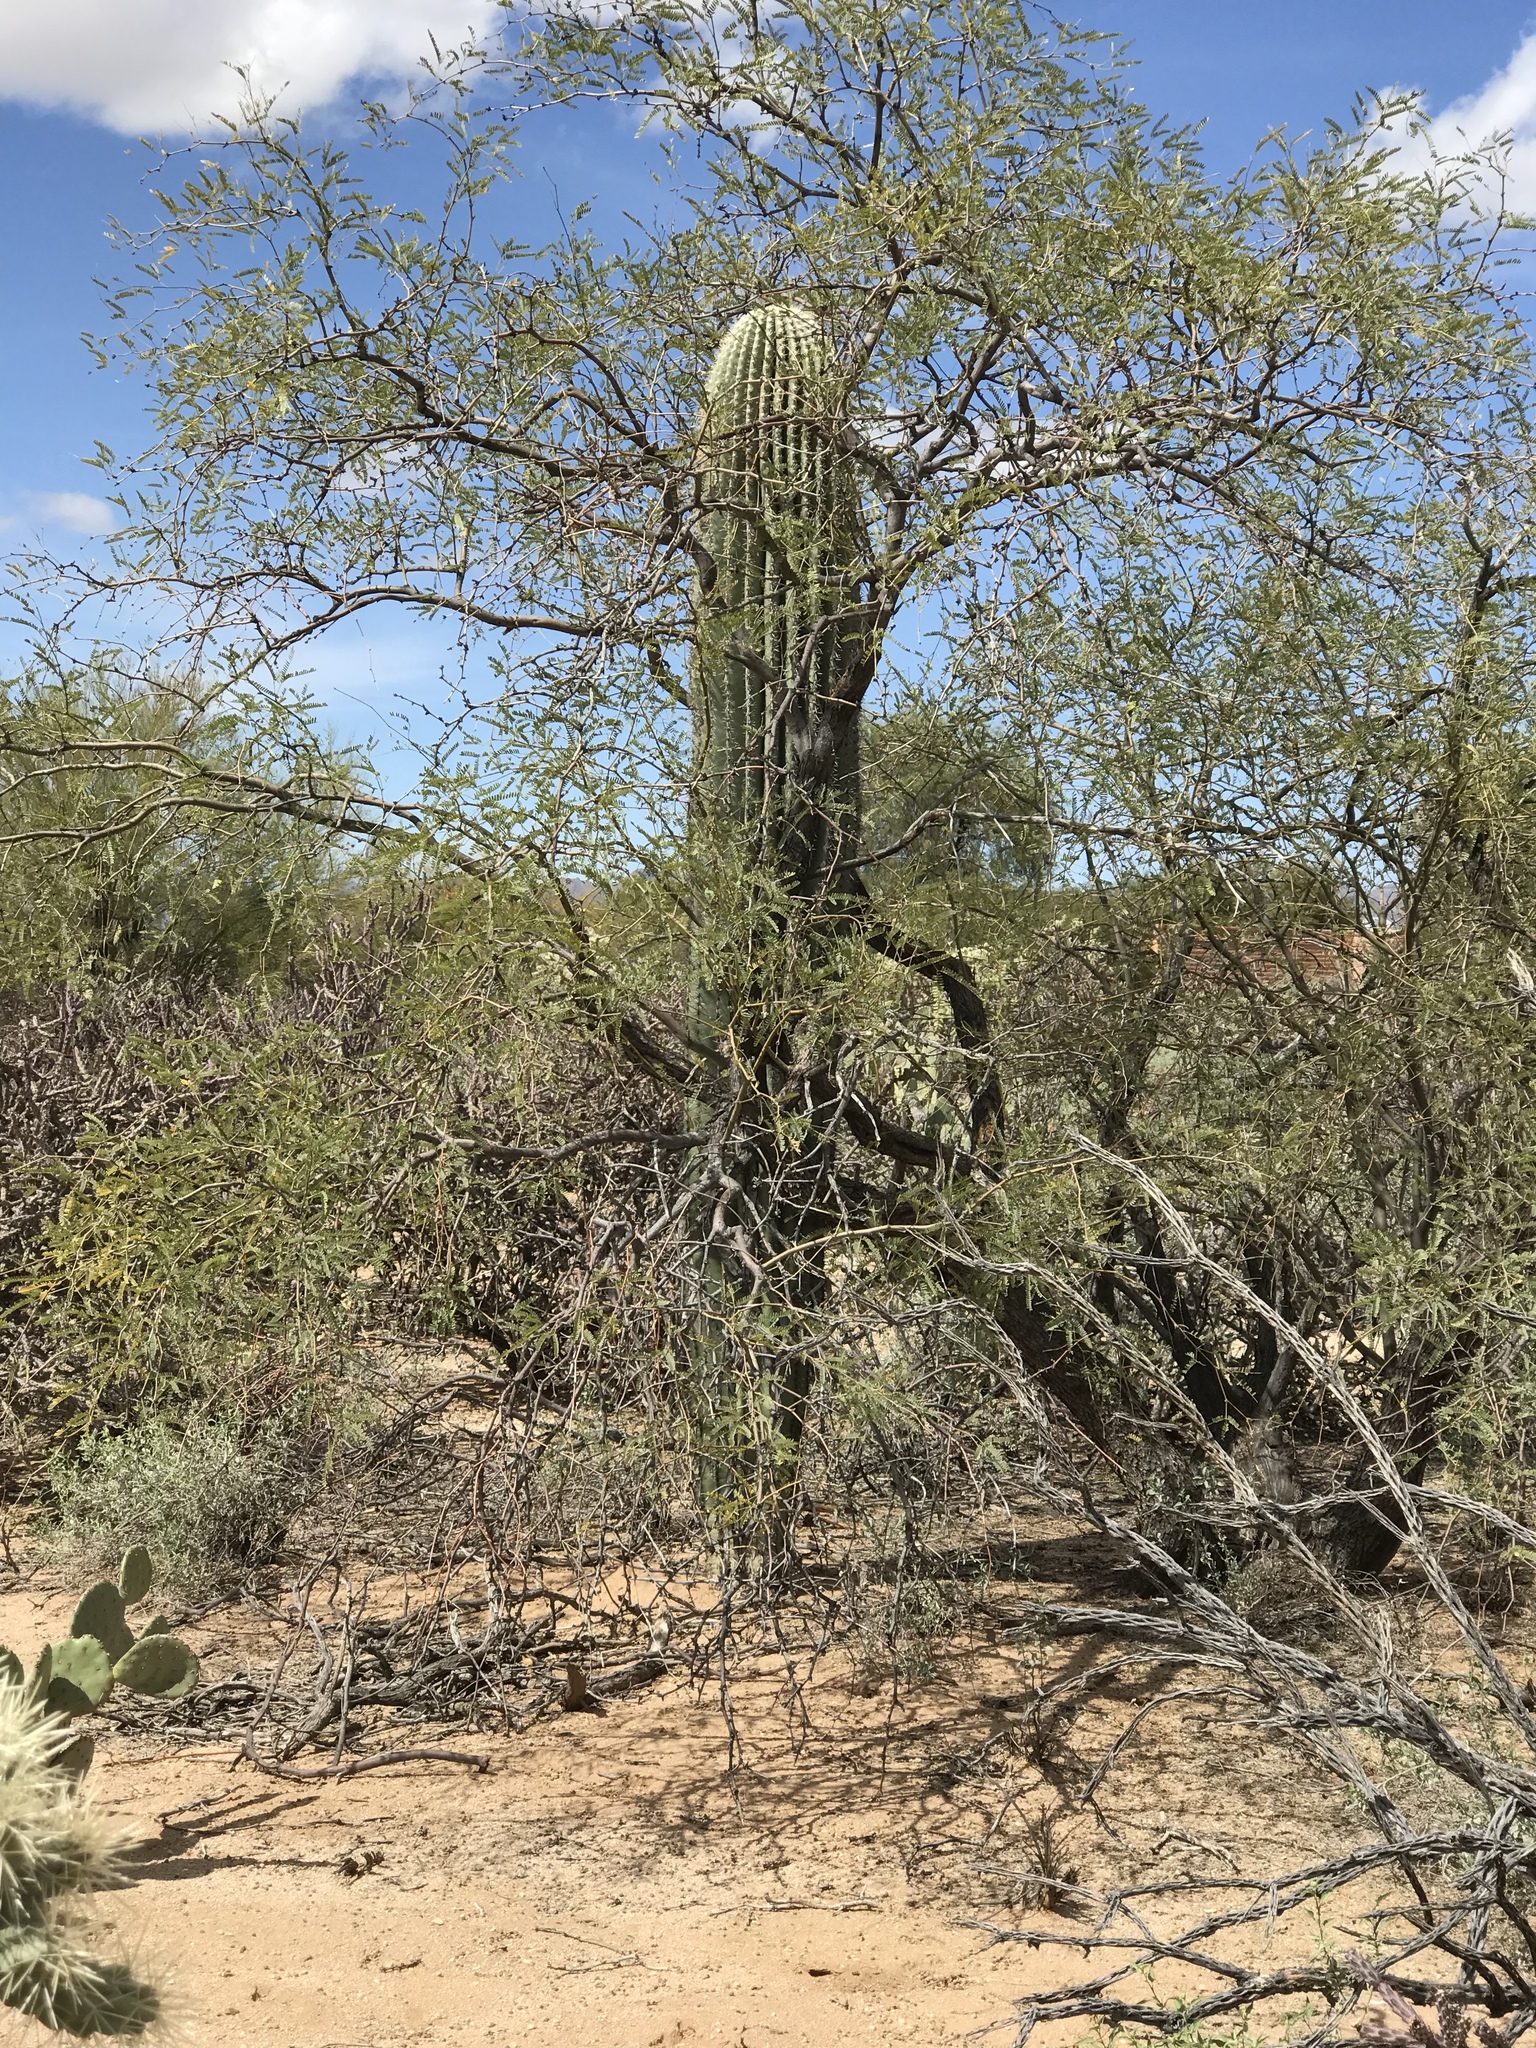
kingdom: Plantae
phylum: Tracheophyta
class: Magnoliopsida
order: Fabales
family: Fabaceae
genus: Prosopis
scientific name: Prosopis velutina
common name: Velvet mesquite
